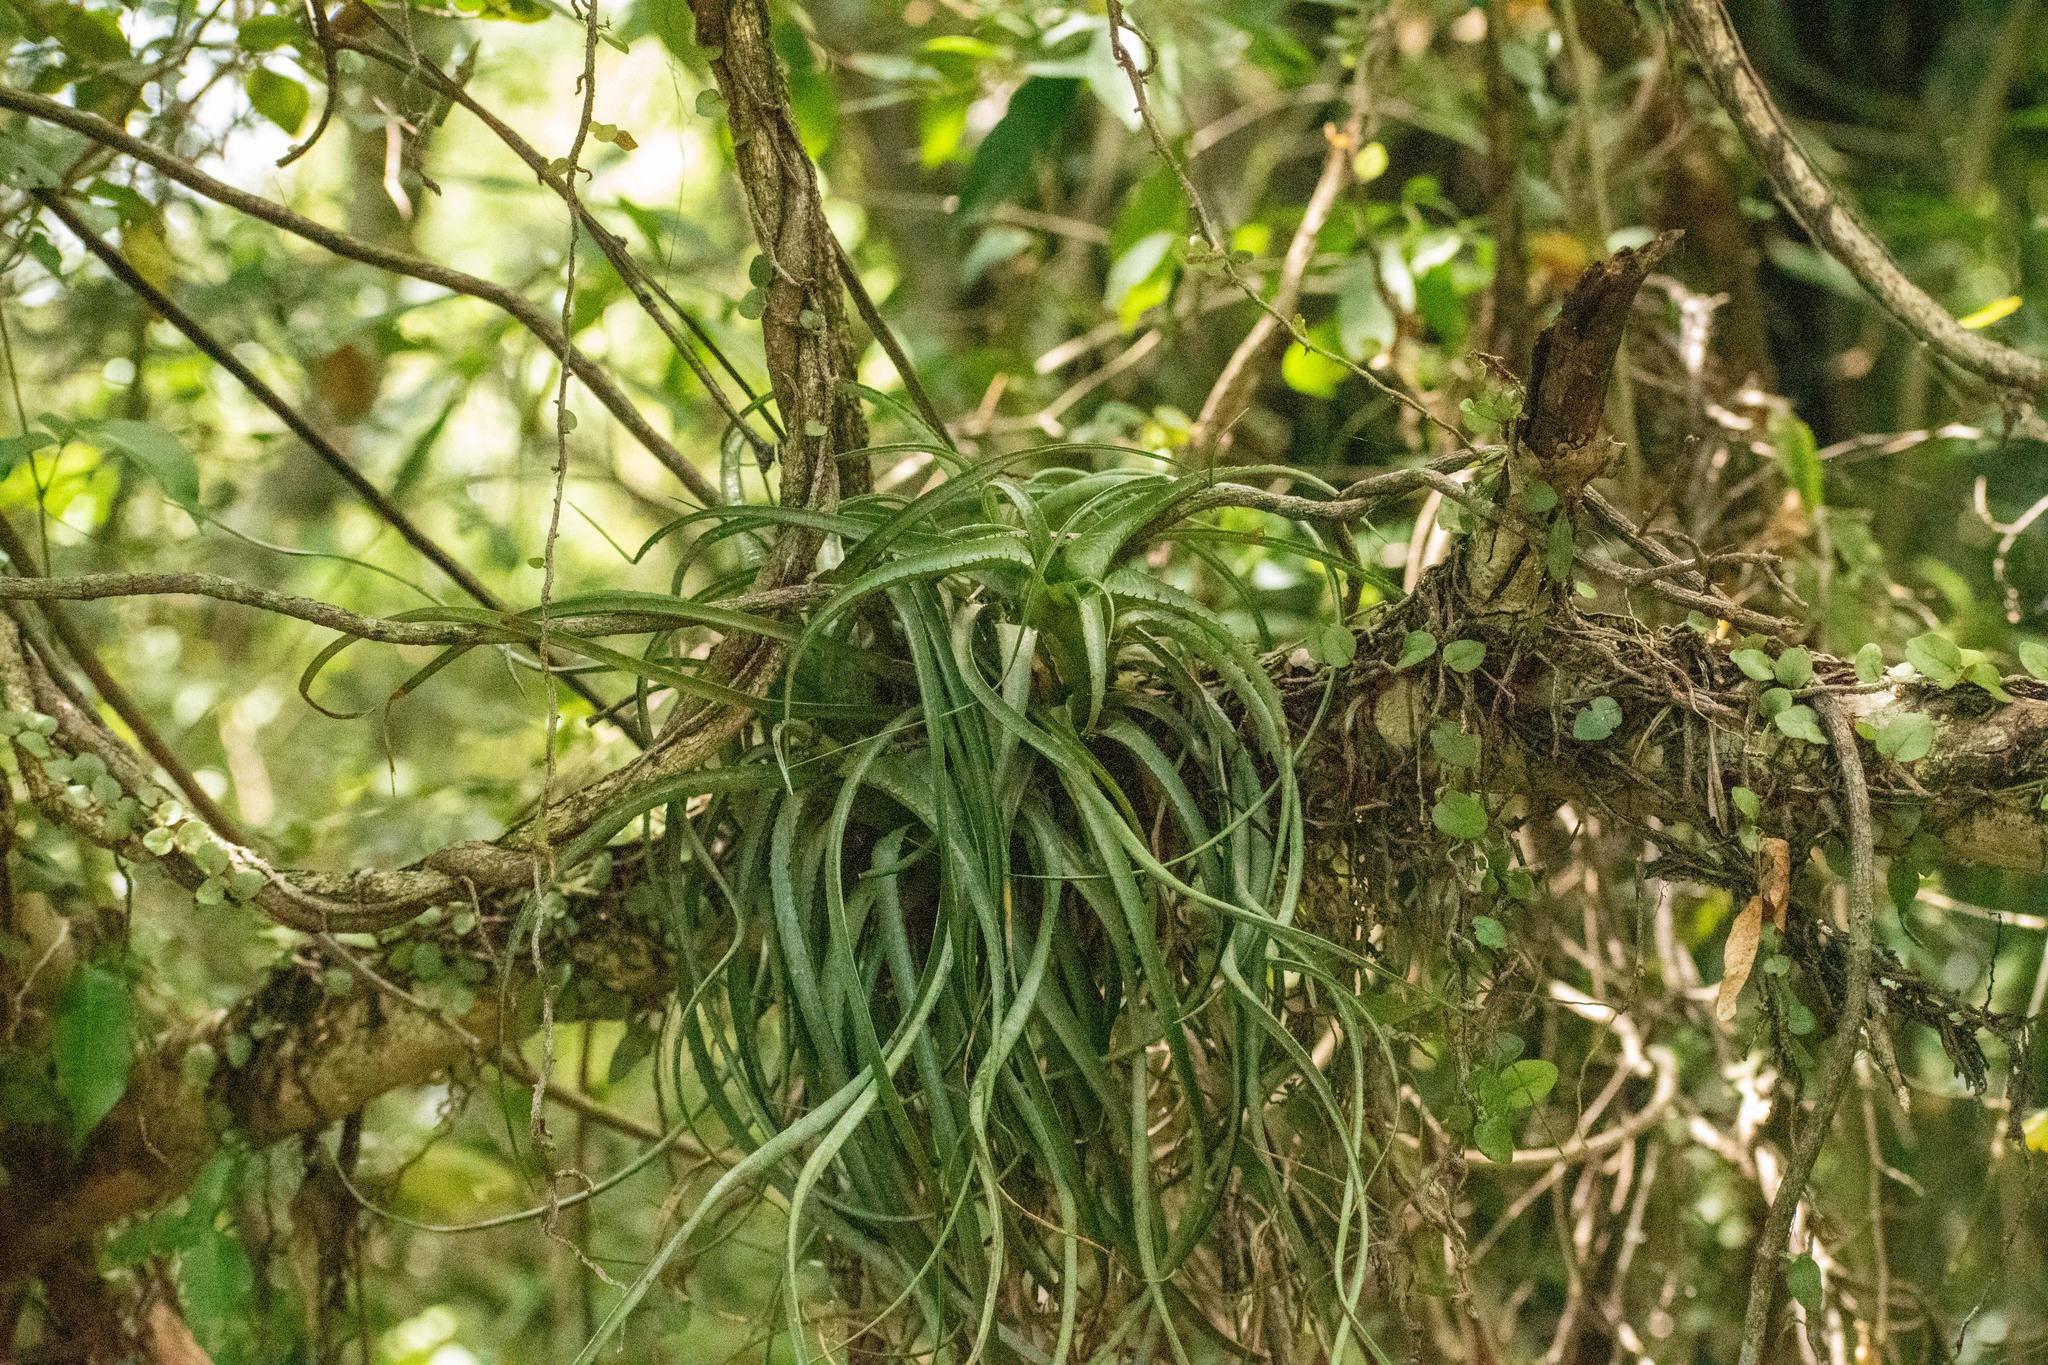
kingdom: Plantae
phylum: Tracheophyta
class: Liliopsida
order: Poales
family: Bromeliaceae
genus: Aechmea
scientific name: Aechmea recurvata
